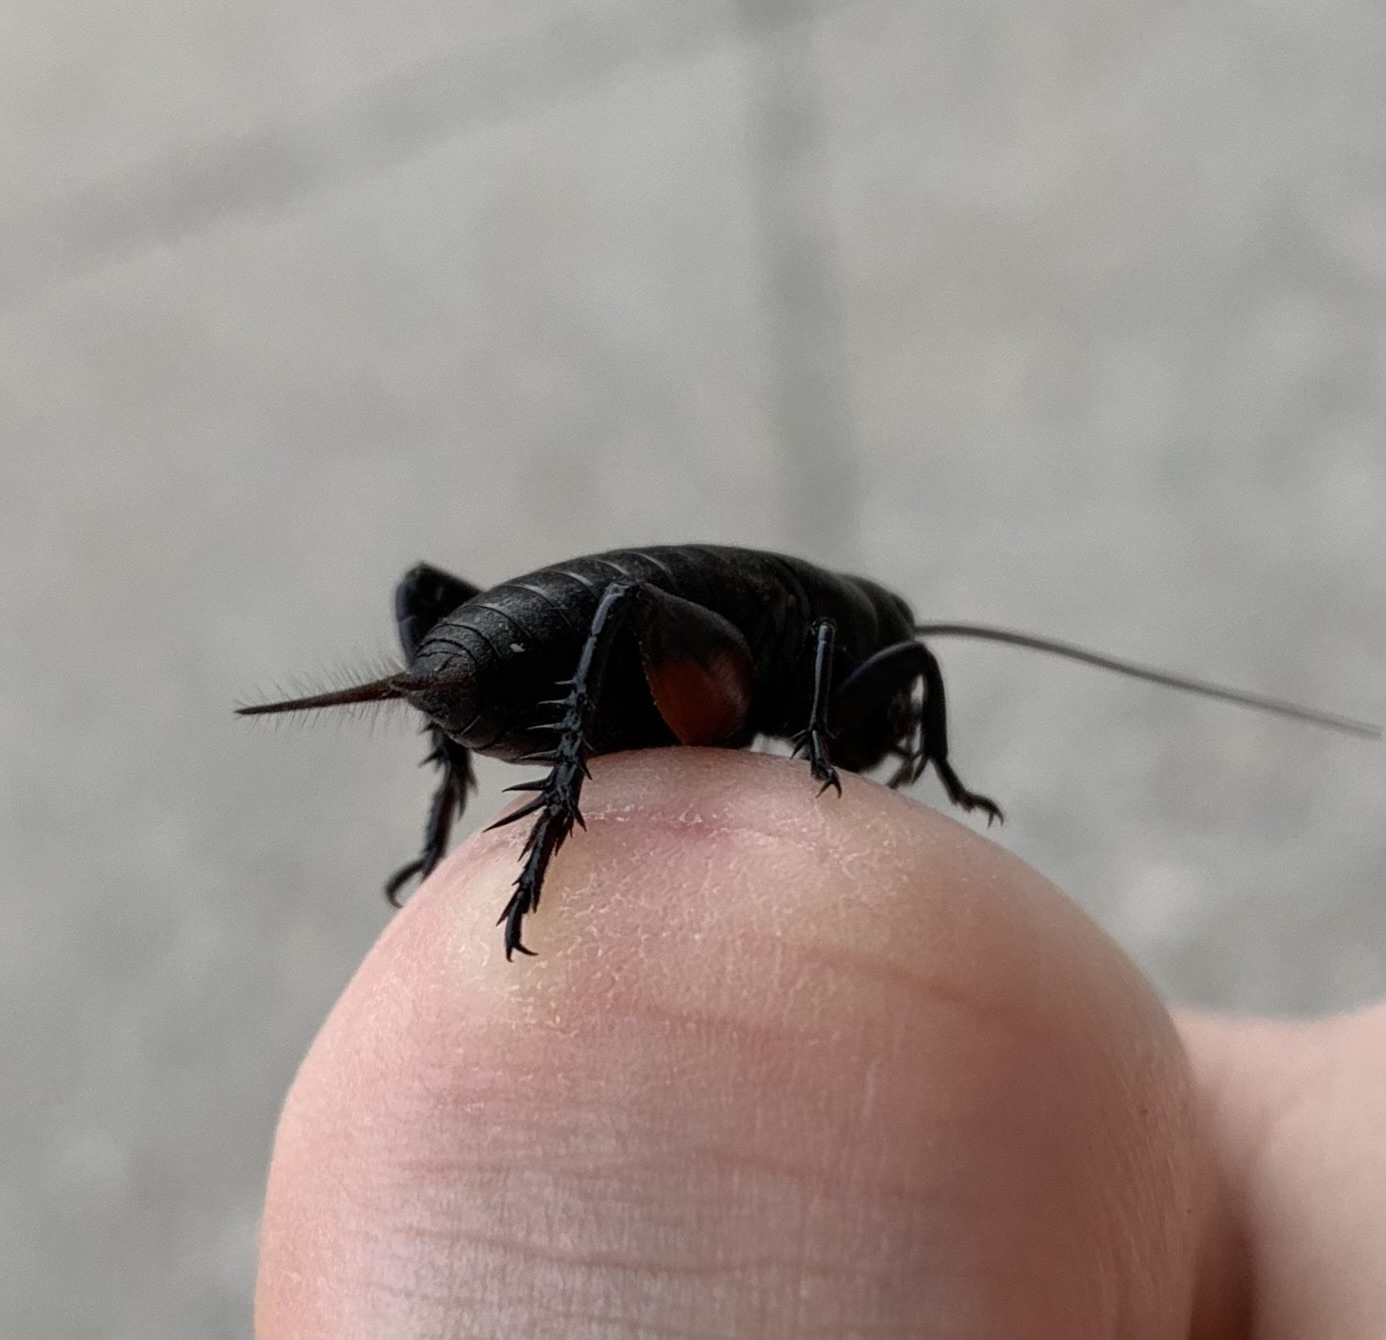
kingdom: Animalia
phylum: Arthropoda
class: Insecta
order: Orthoptera
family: Gryllidae
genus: Gryllus
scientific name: Gryllus campestris
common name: Field cricket
